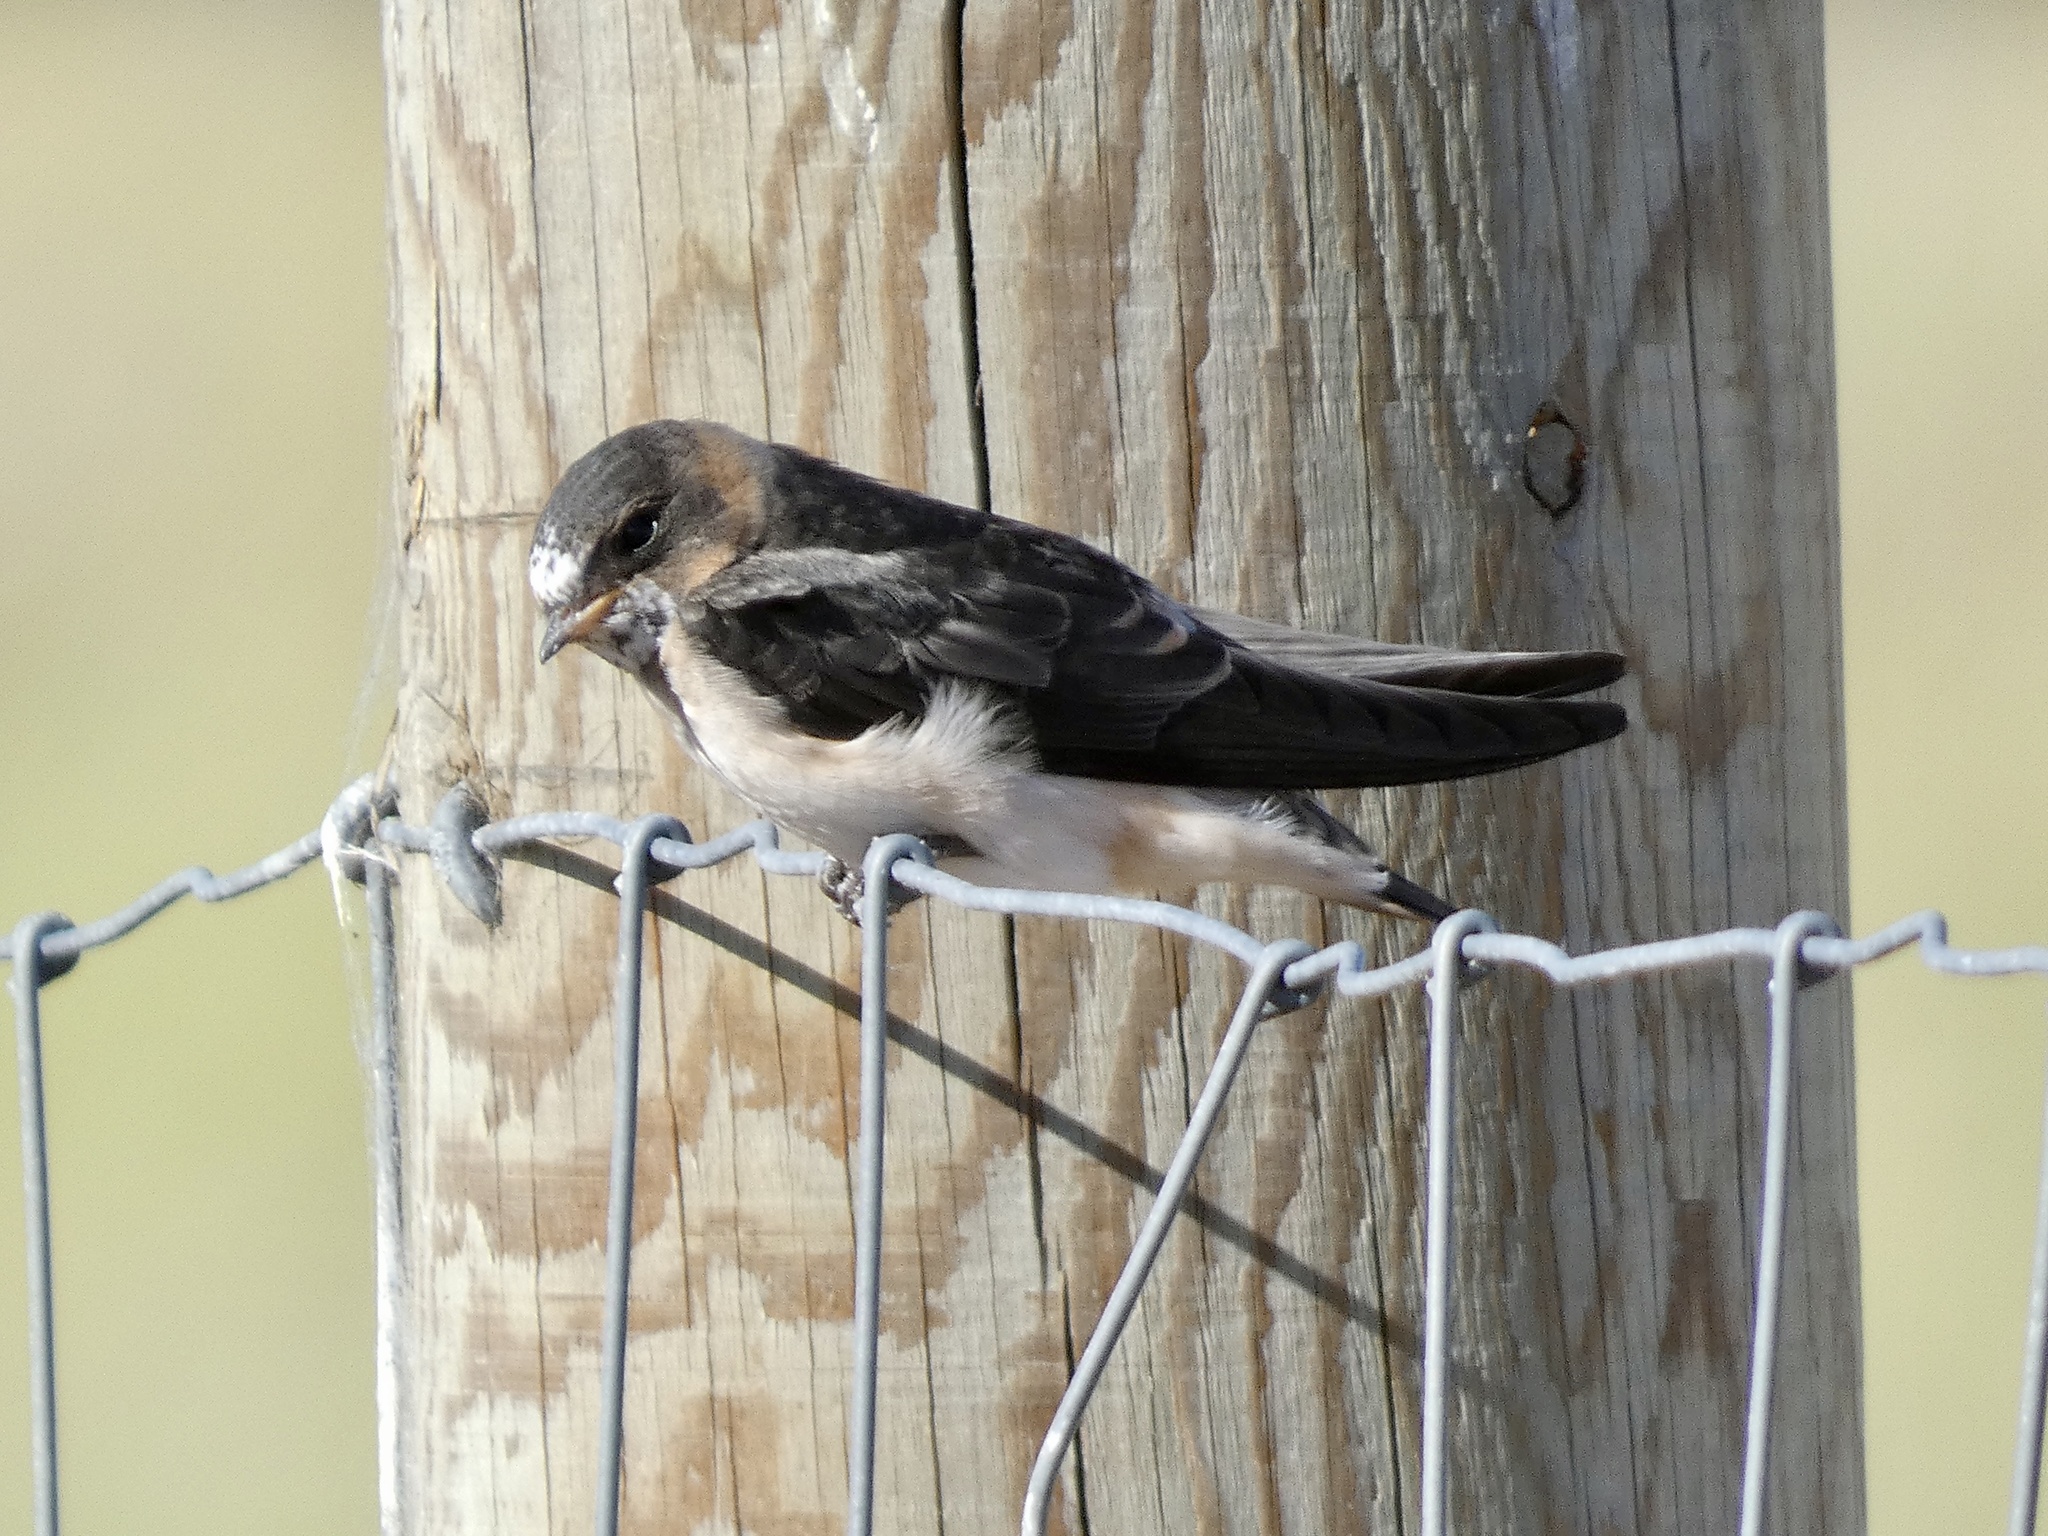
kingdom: Animalia
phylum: Chordata
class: Aves
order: Passeriformes
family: Hirundinidae
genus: Petrochelidon
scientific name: Petrochelidon pyrrhonota
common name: American cliff swallow
